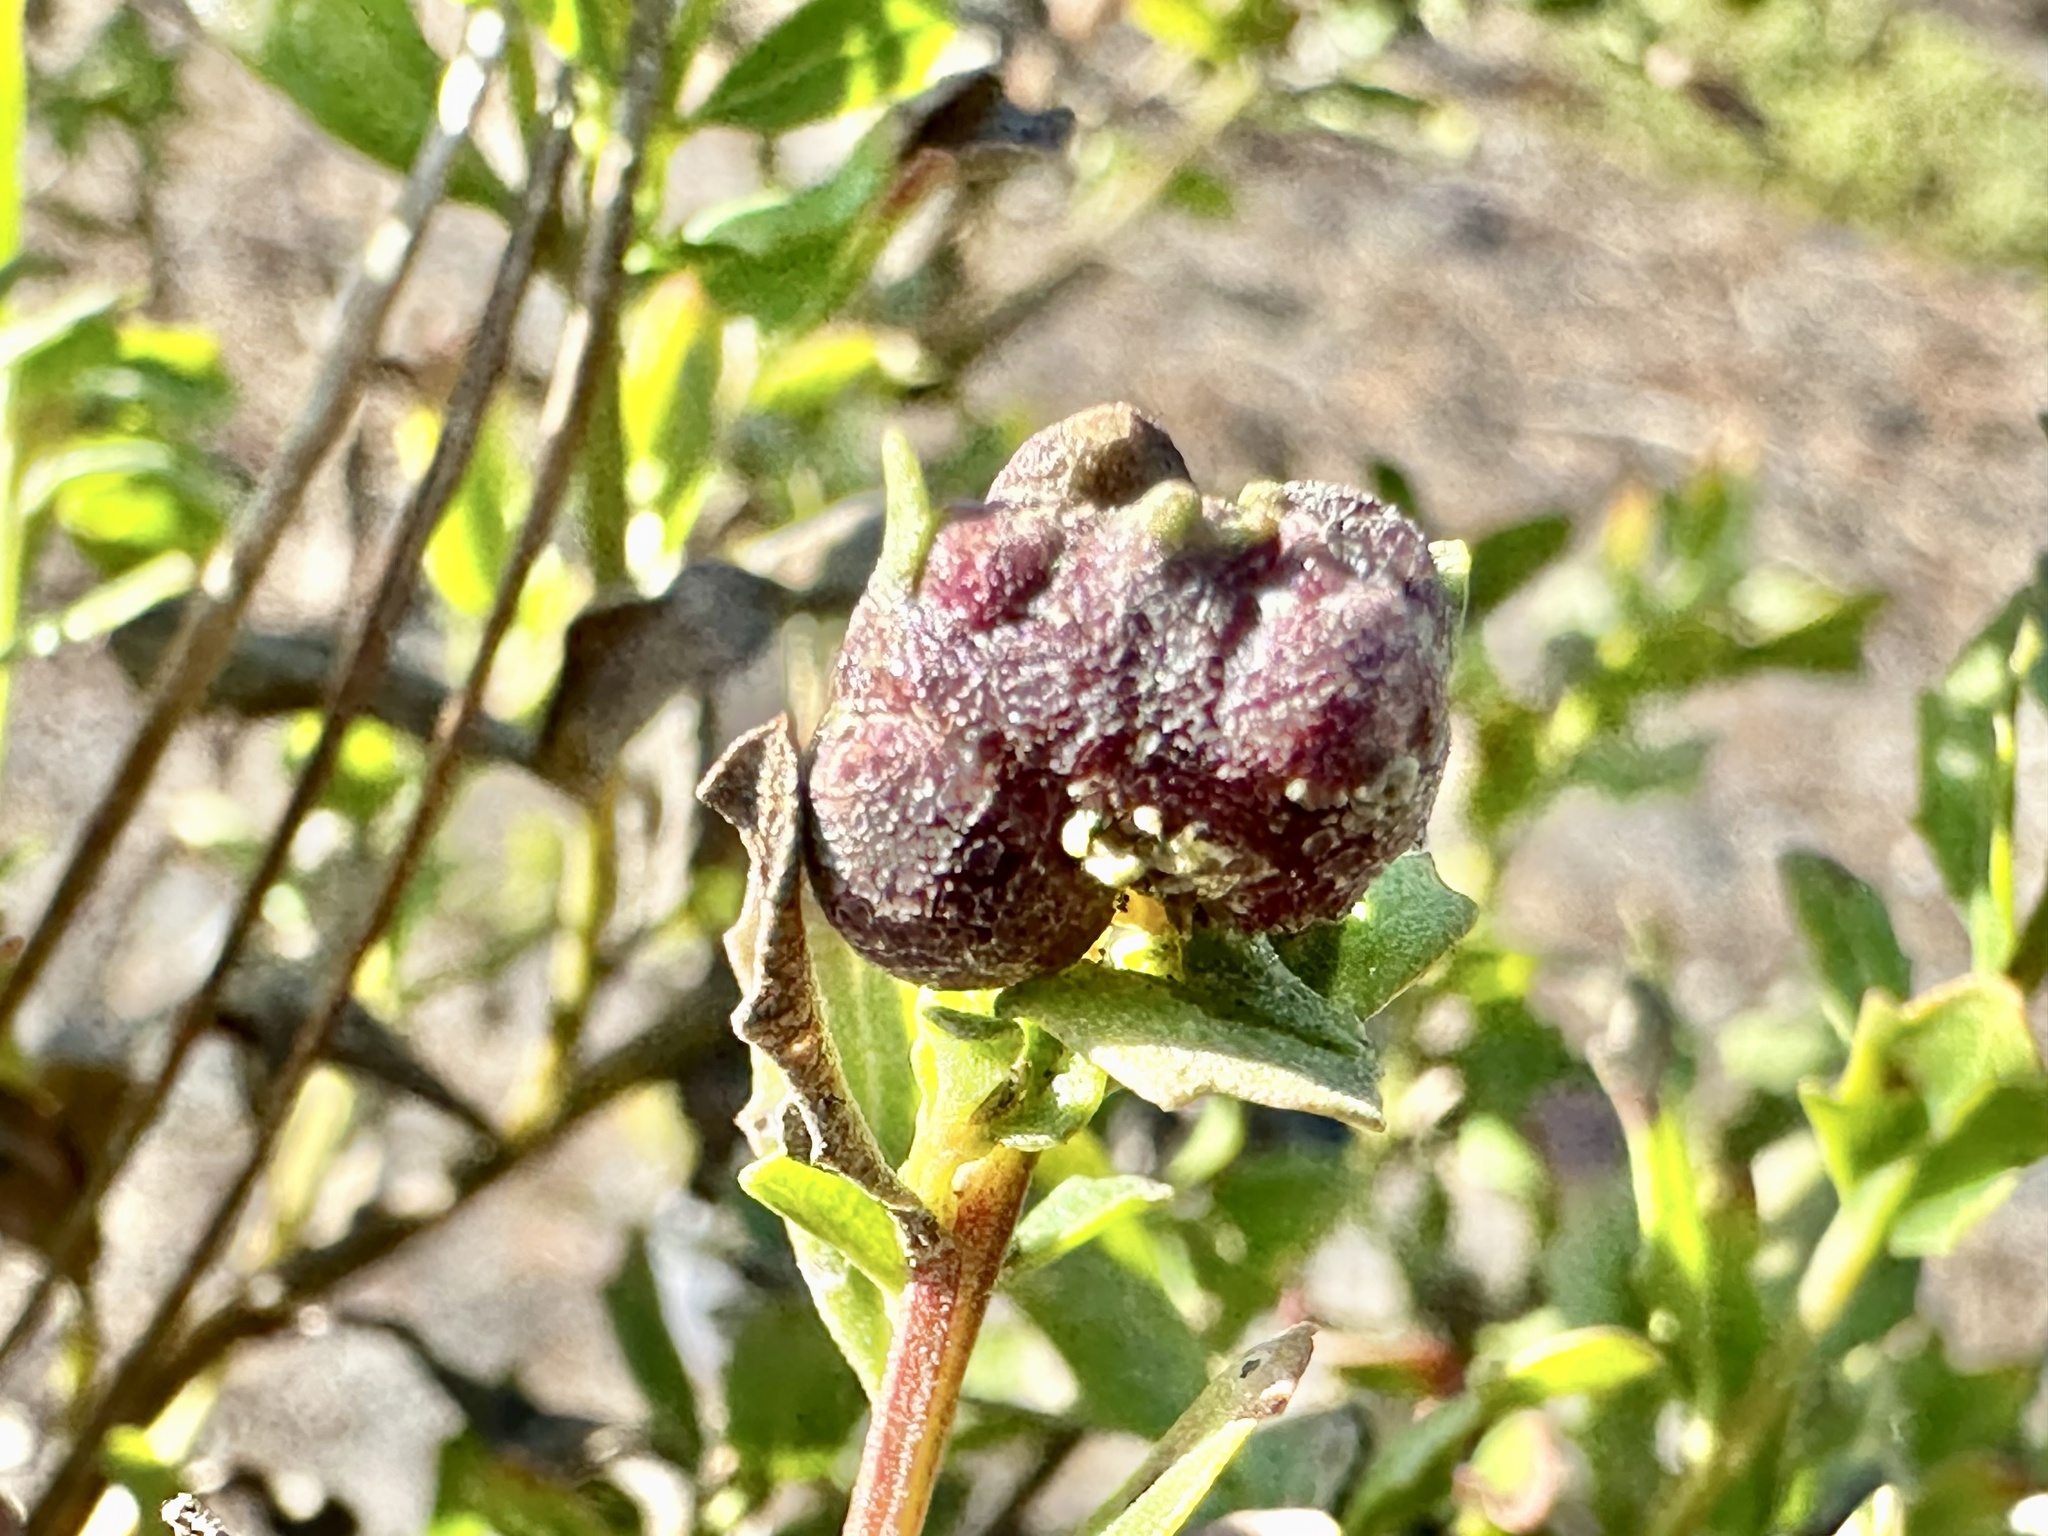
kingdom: Animalia
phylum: Arthropoda
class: Insecta
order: Diptera
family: Cecidomyiidae
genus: Rhopalomyia
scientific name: Rhopalomyia californica
